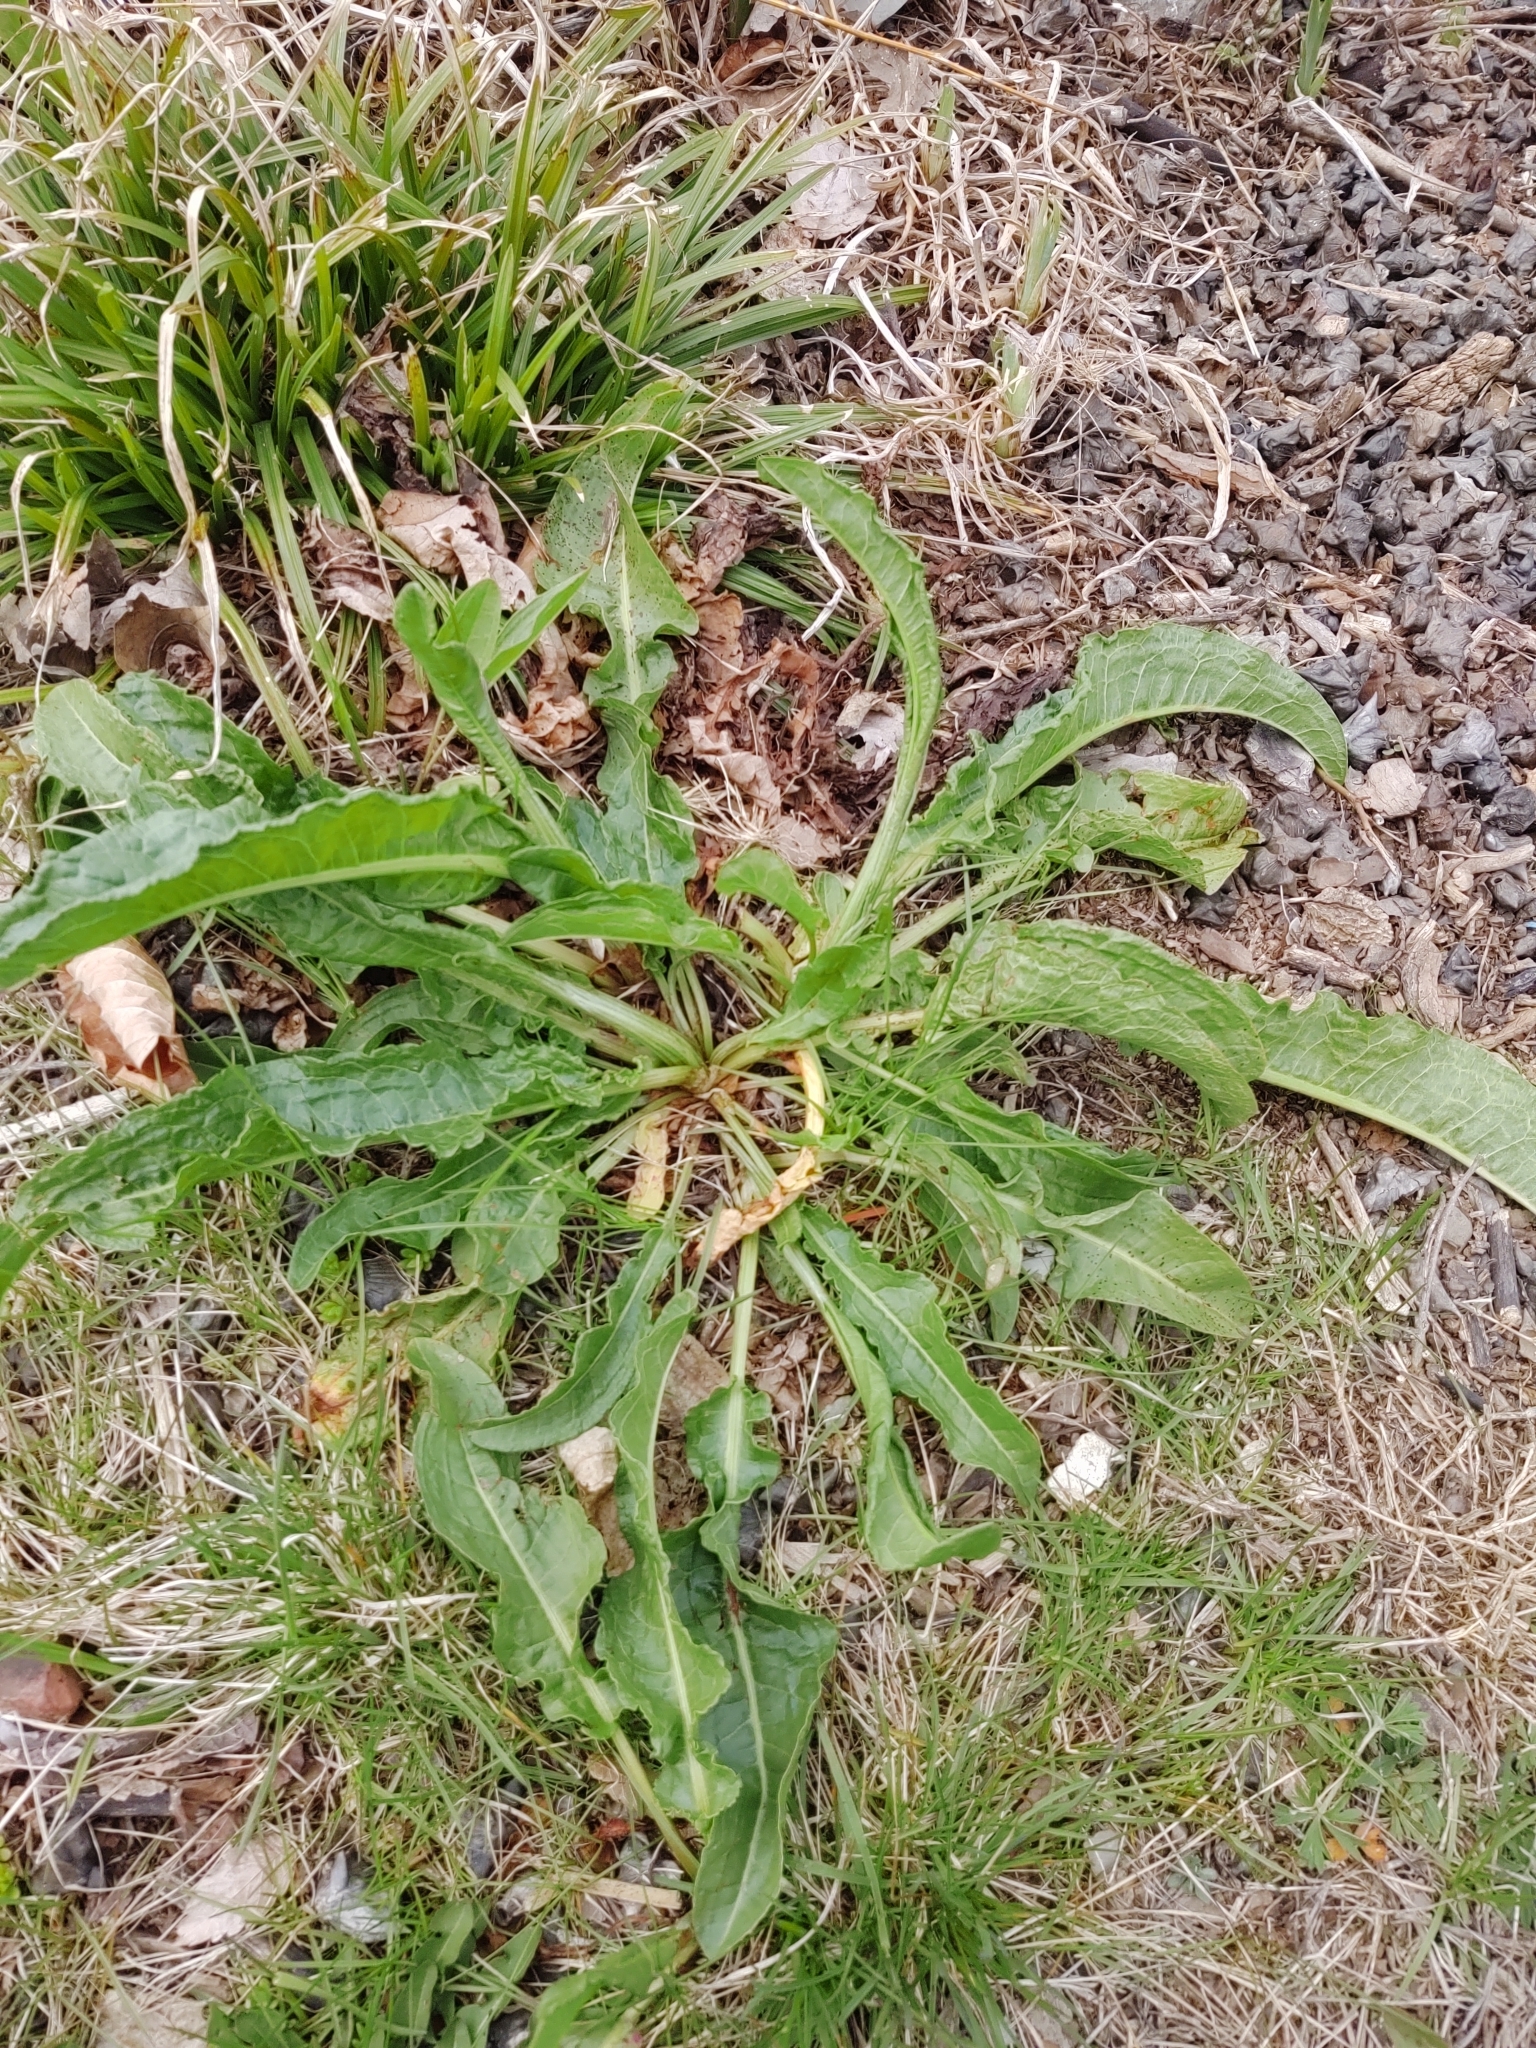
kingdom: Plantae
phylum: Tracheophyta
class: Magnoliopsida
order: Caryophyllales
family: Polygonaceae
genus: Rumex
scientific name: Rumex crispus
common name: Curled dock
